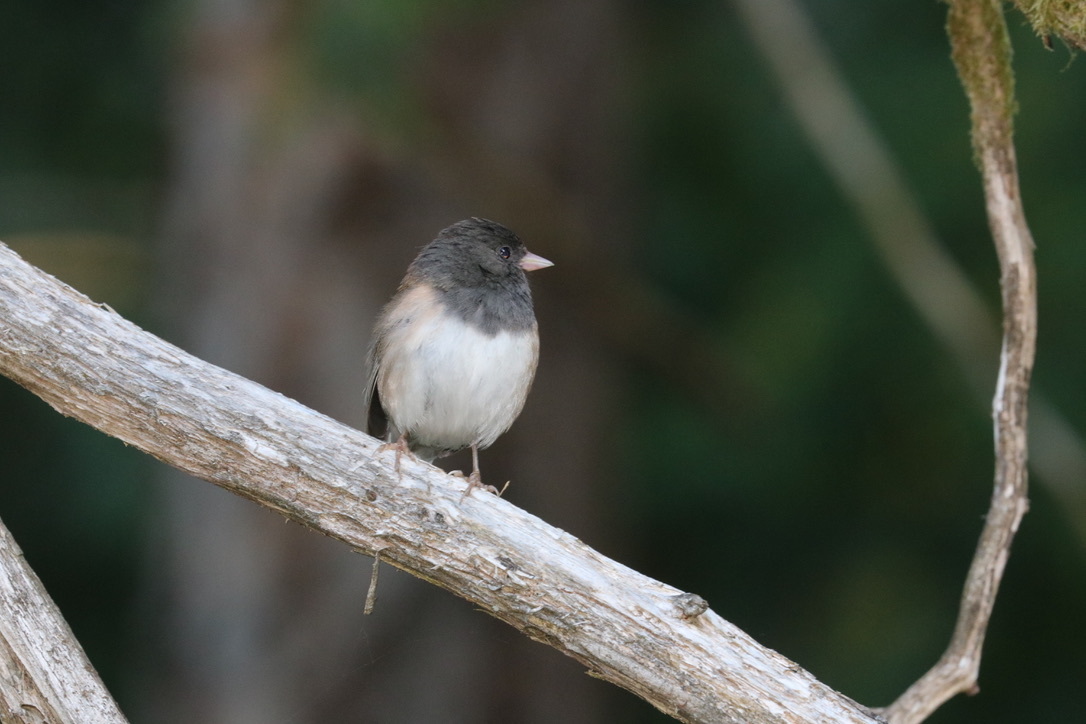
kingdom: Animalia
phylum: Chordata
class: Aves
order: Passeriformes
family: Passerellidae
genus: Junco
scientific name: Junco hyemalis
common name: Dark-eyed junco
